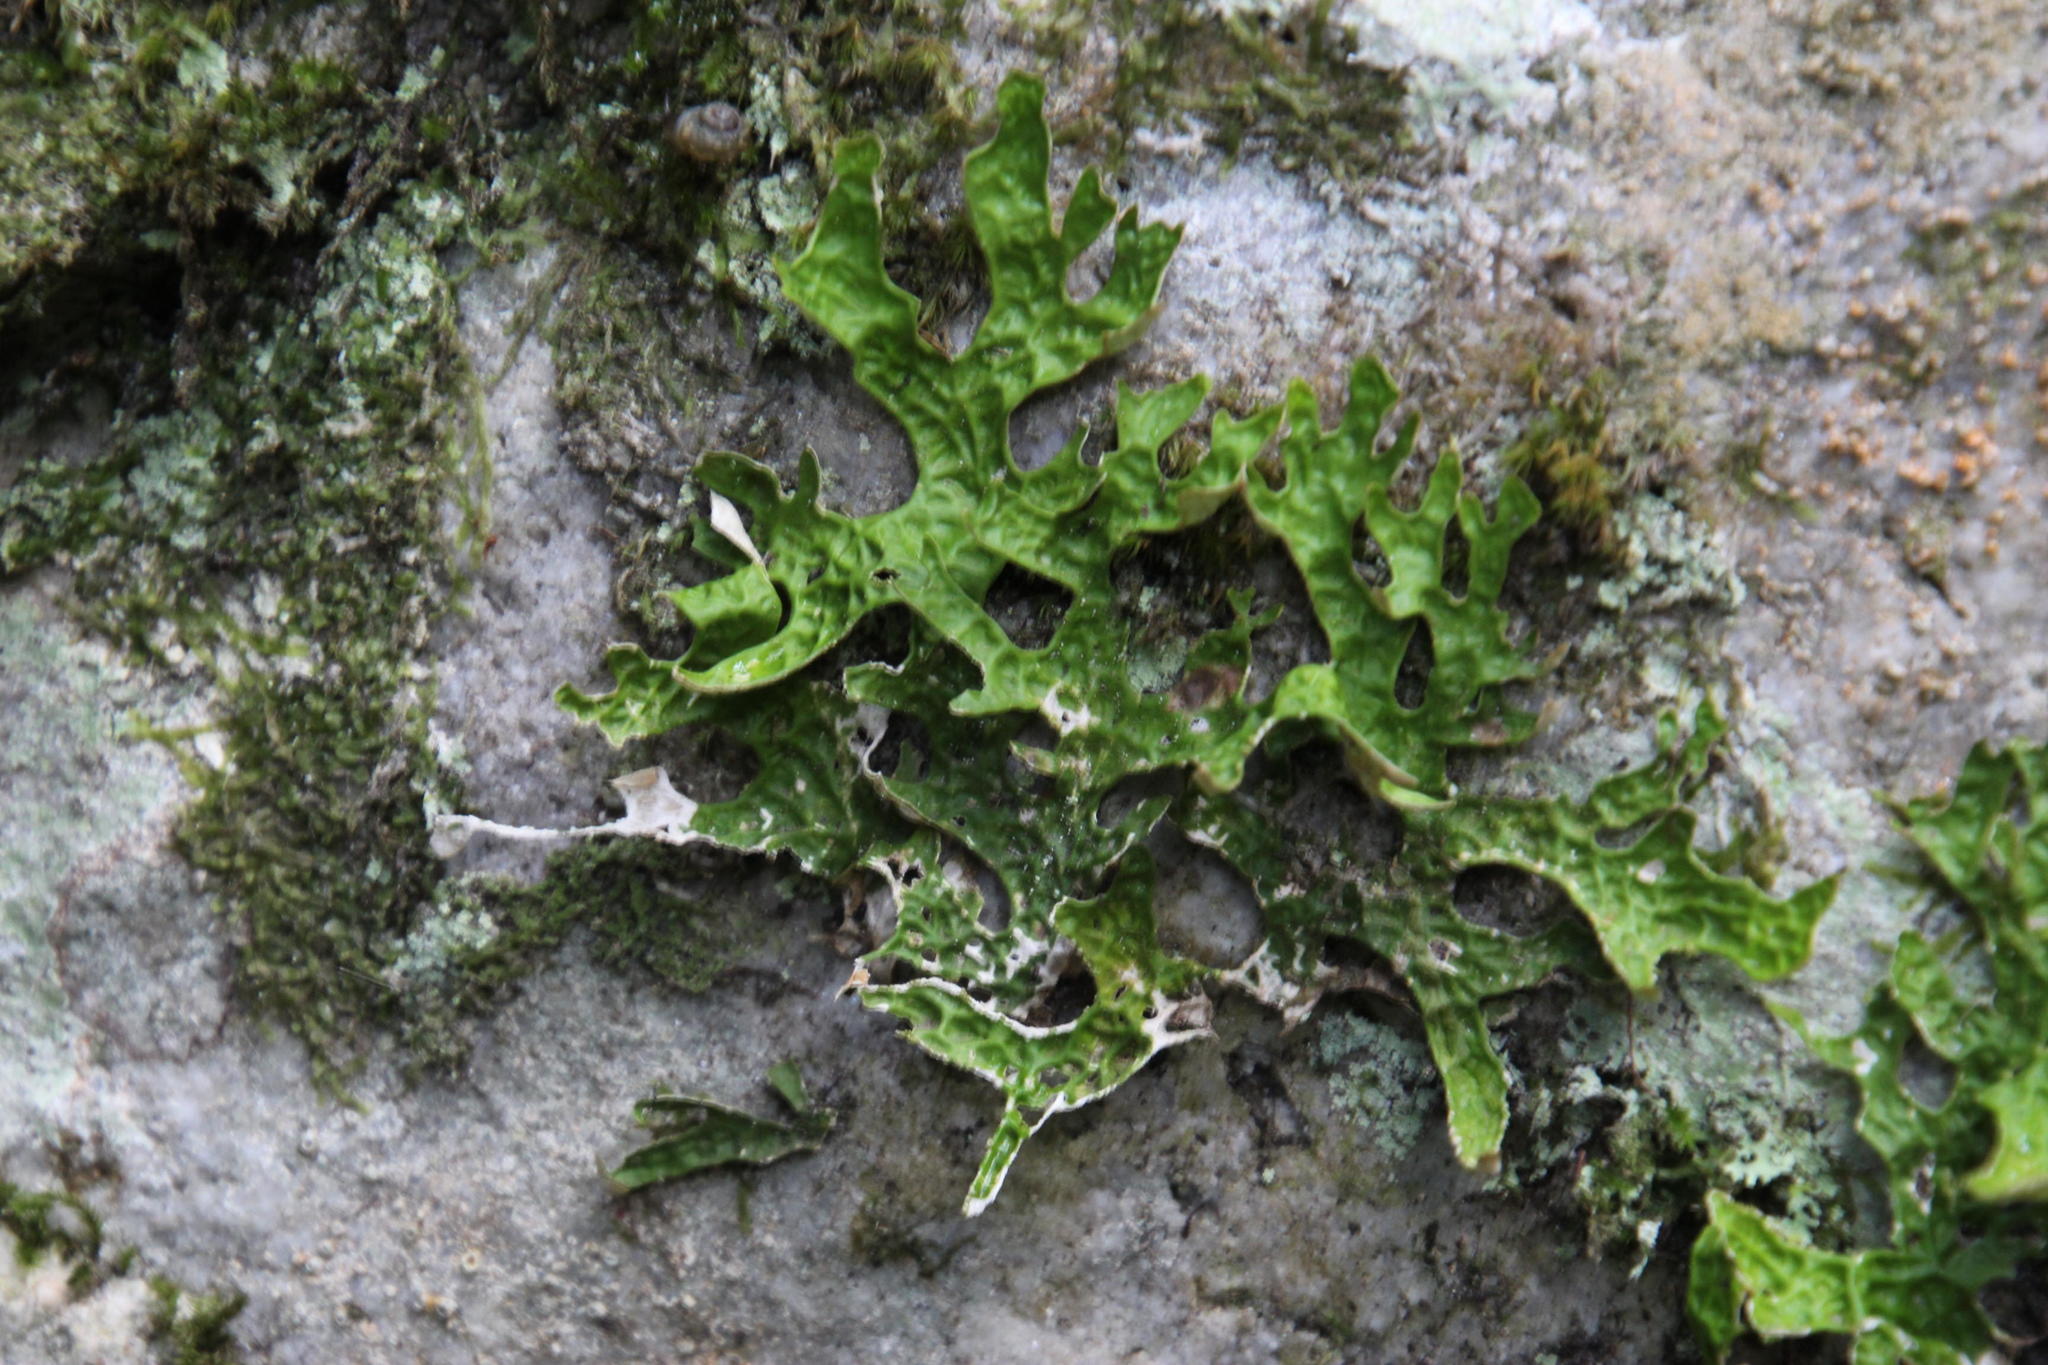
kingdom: Fungi
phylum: Ascomycota
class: Lecanoromycetes
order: Peltigerales
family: Lobariaceae
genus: Lobaria
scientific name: Lobaria pulmonaria
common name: Lungwort
